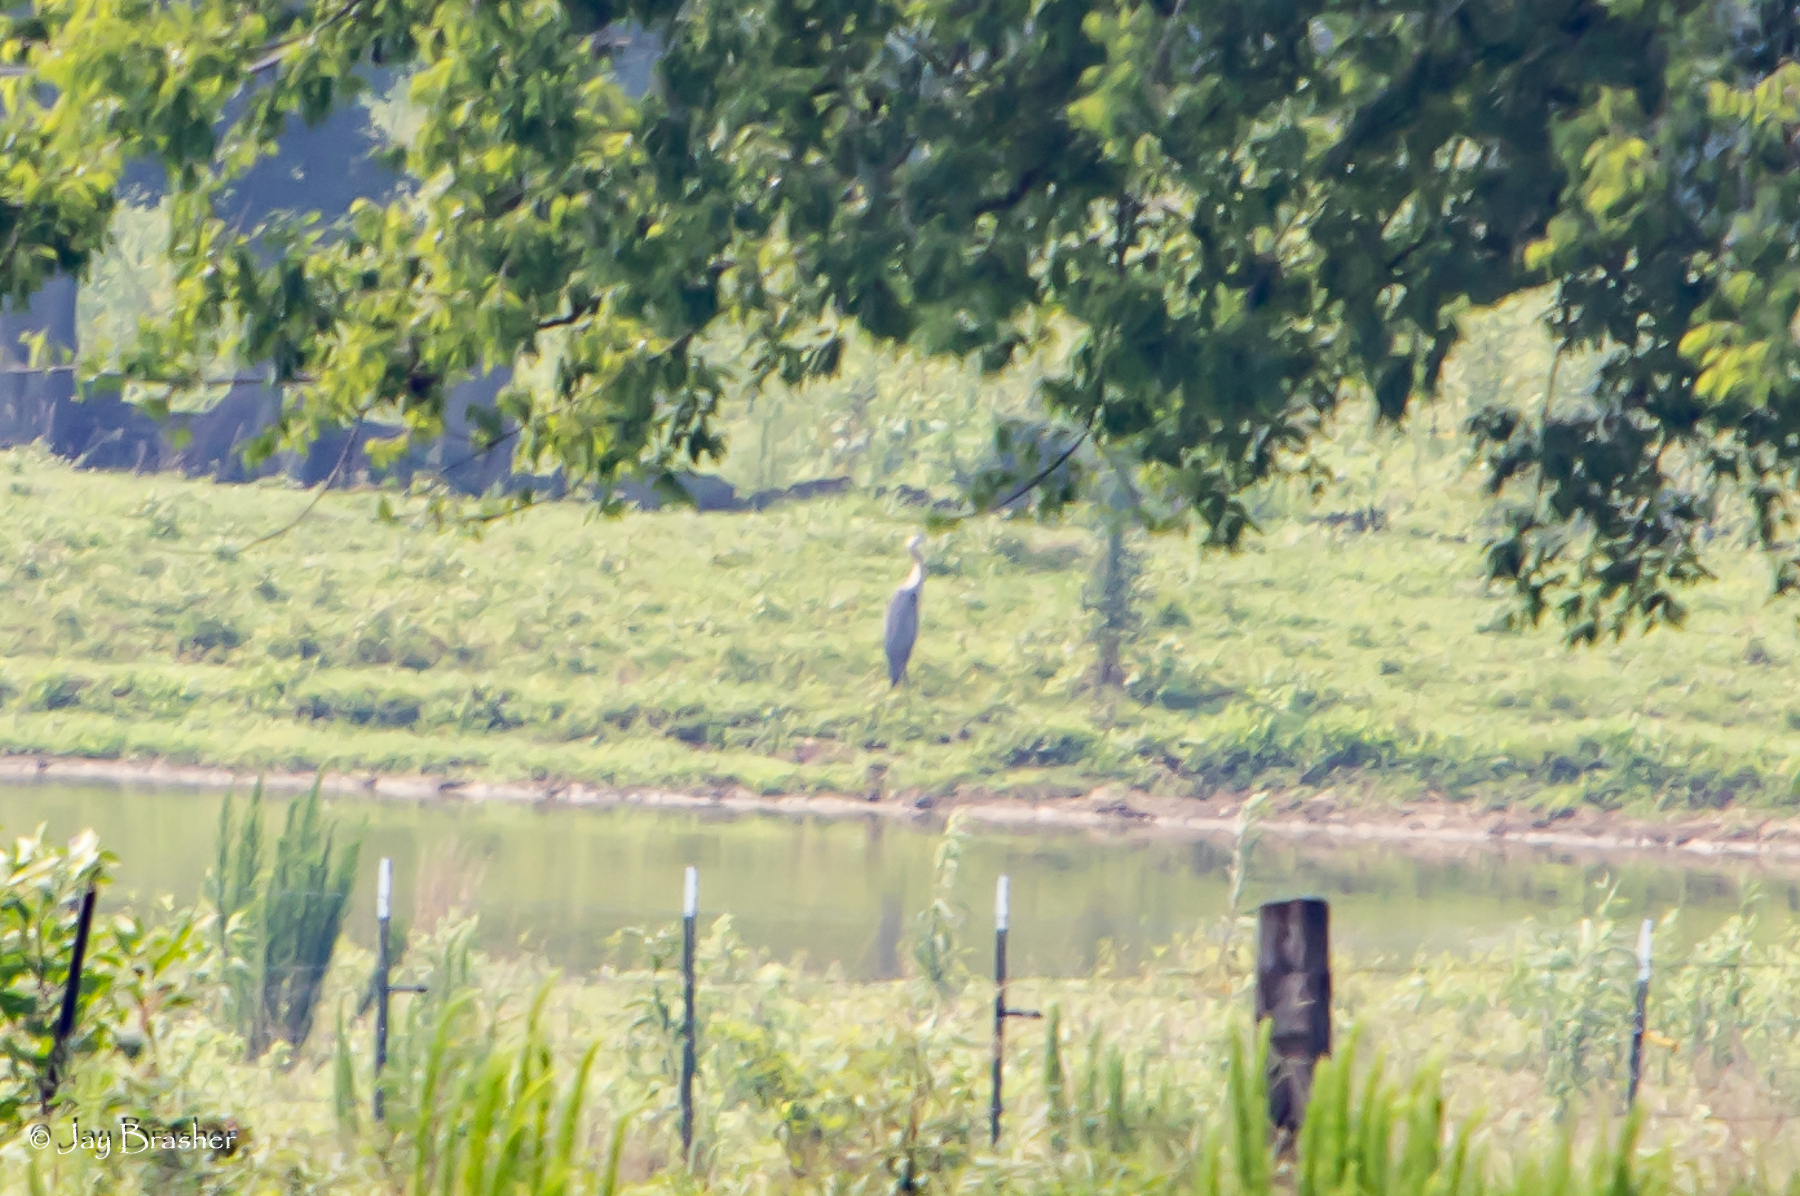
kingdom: Animalia
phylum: Chordata
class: Aves
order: Pelecaniformes
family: Ardeidae
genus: Ardea
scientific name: Ardea herodias
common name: Great blue heron
